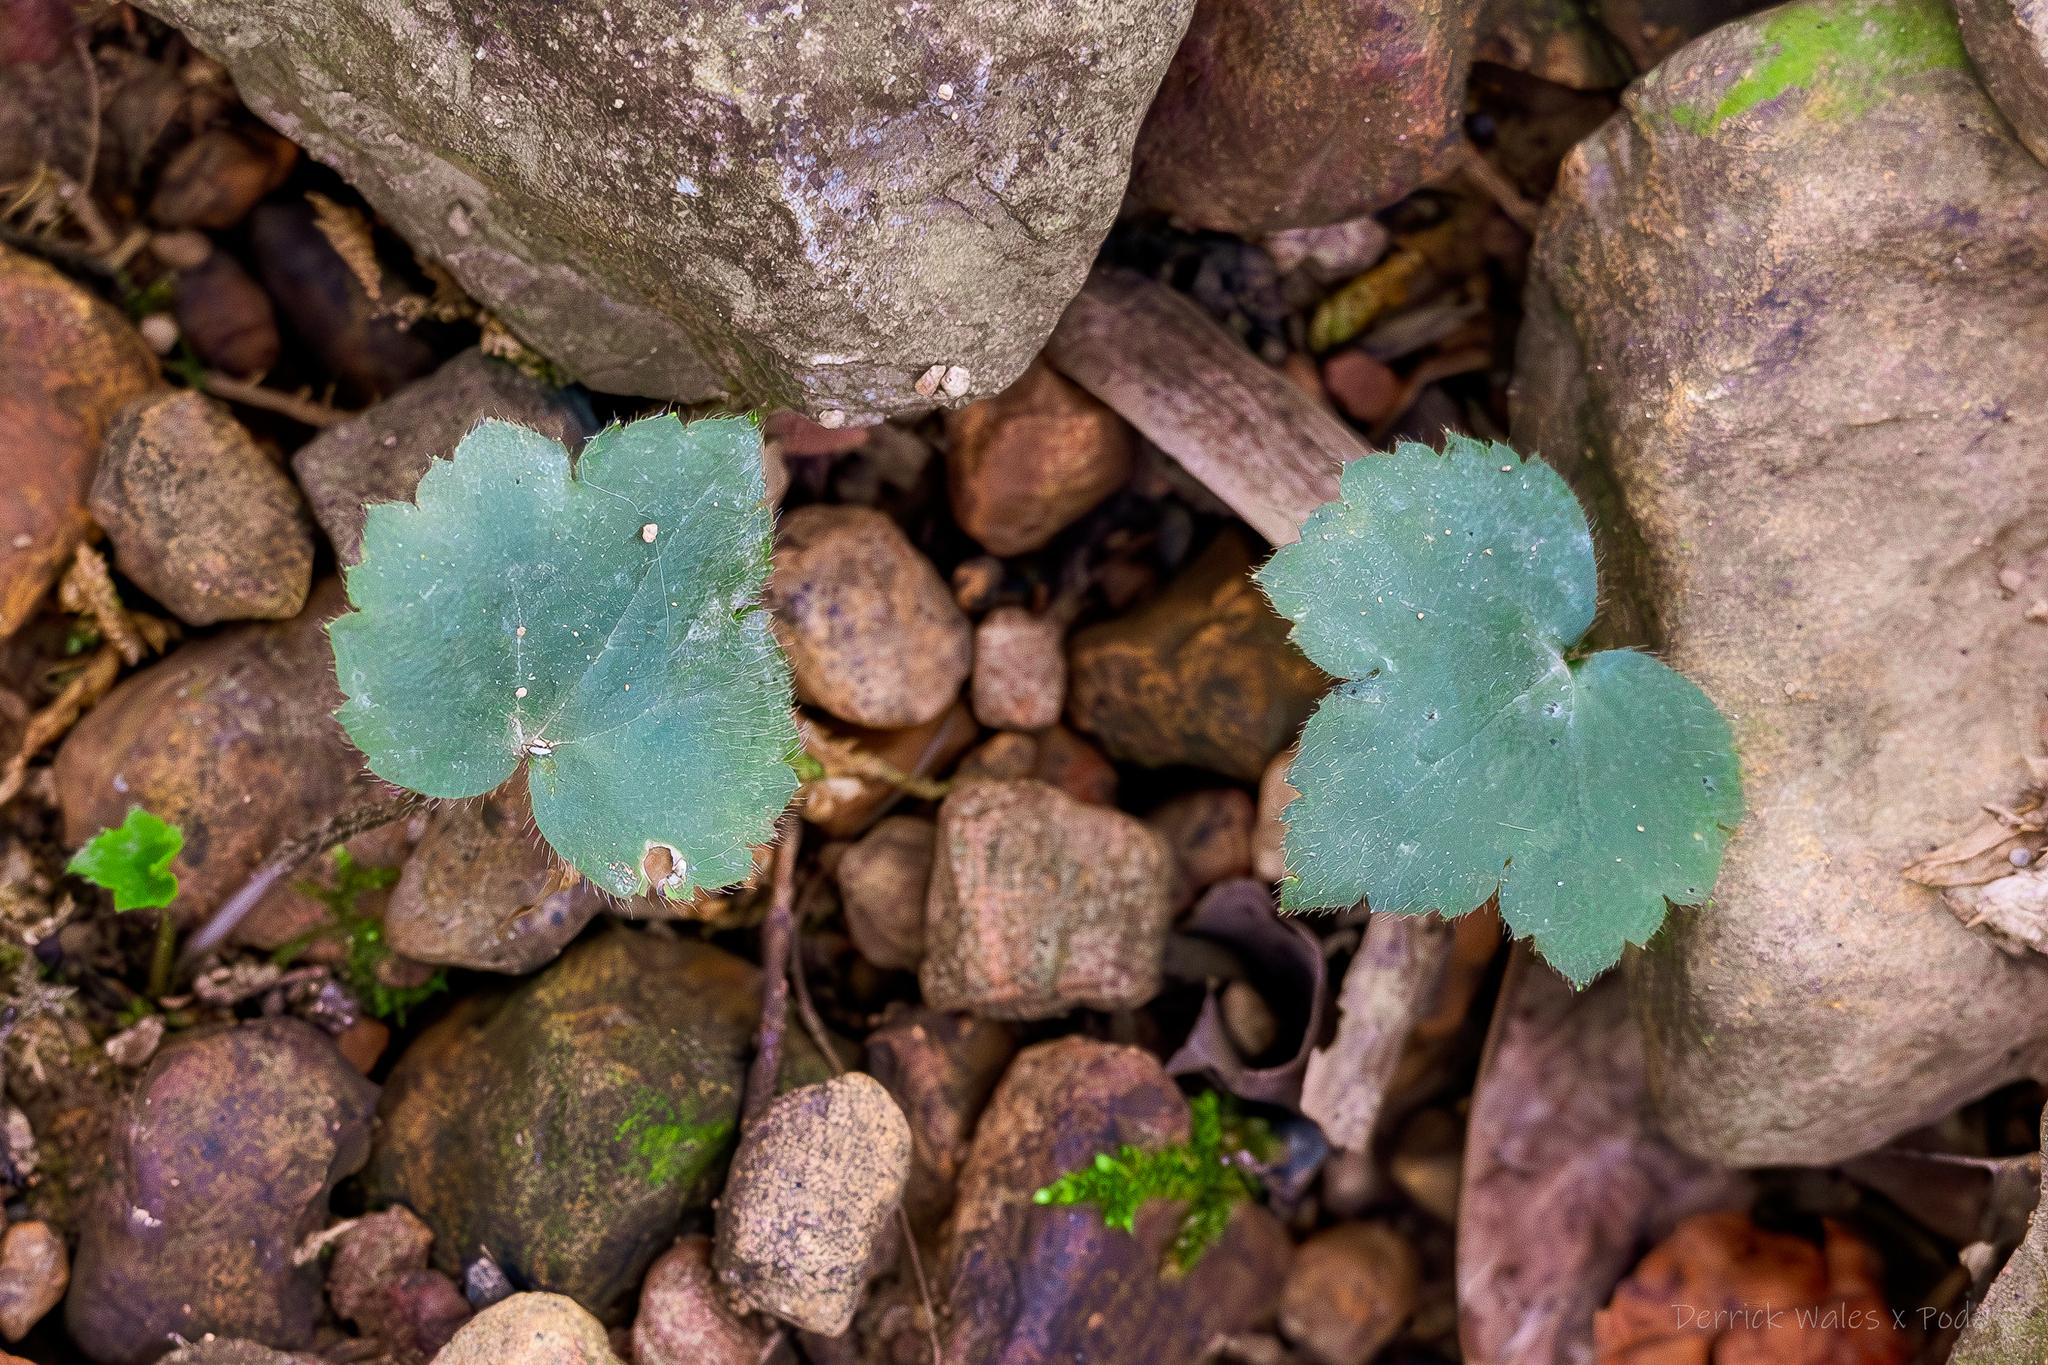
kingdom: Plantae
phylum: Tracheophyta
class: Magnoliopsida
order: Ranunculales
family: Ranunculaceae
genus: Ranunculus
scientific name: Ranunculus recurvatus
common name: Blisterwort
